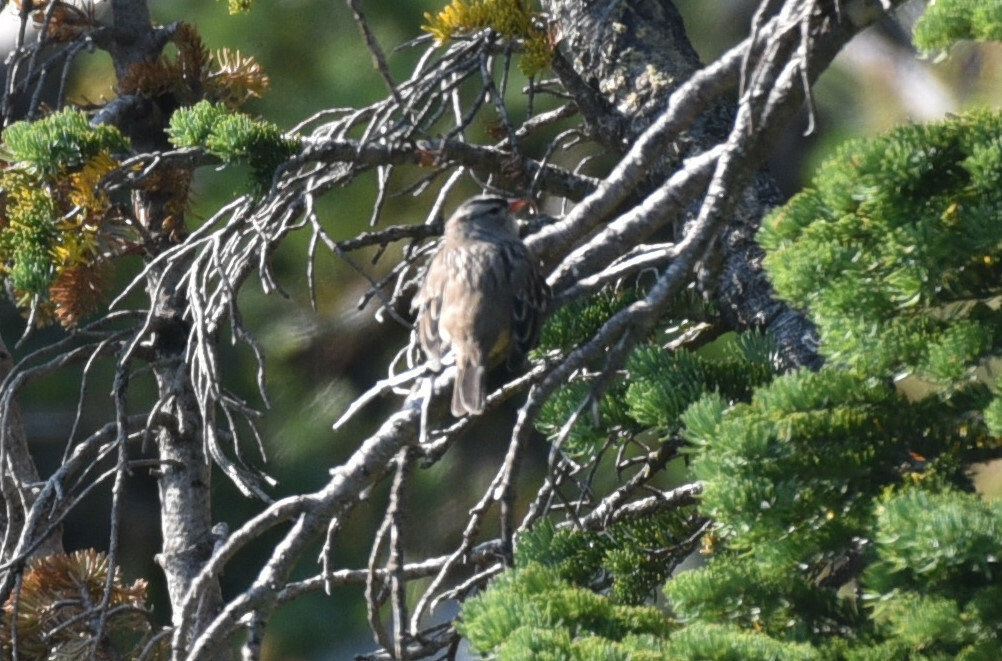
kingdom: Animalia
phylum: Chordata
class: Aves
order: Passeriformes
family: Passerellidae
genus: Zonotrichia
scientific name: Zonotrichia leucophrys
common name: White-crowned sparrow
